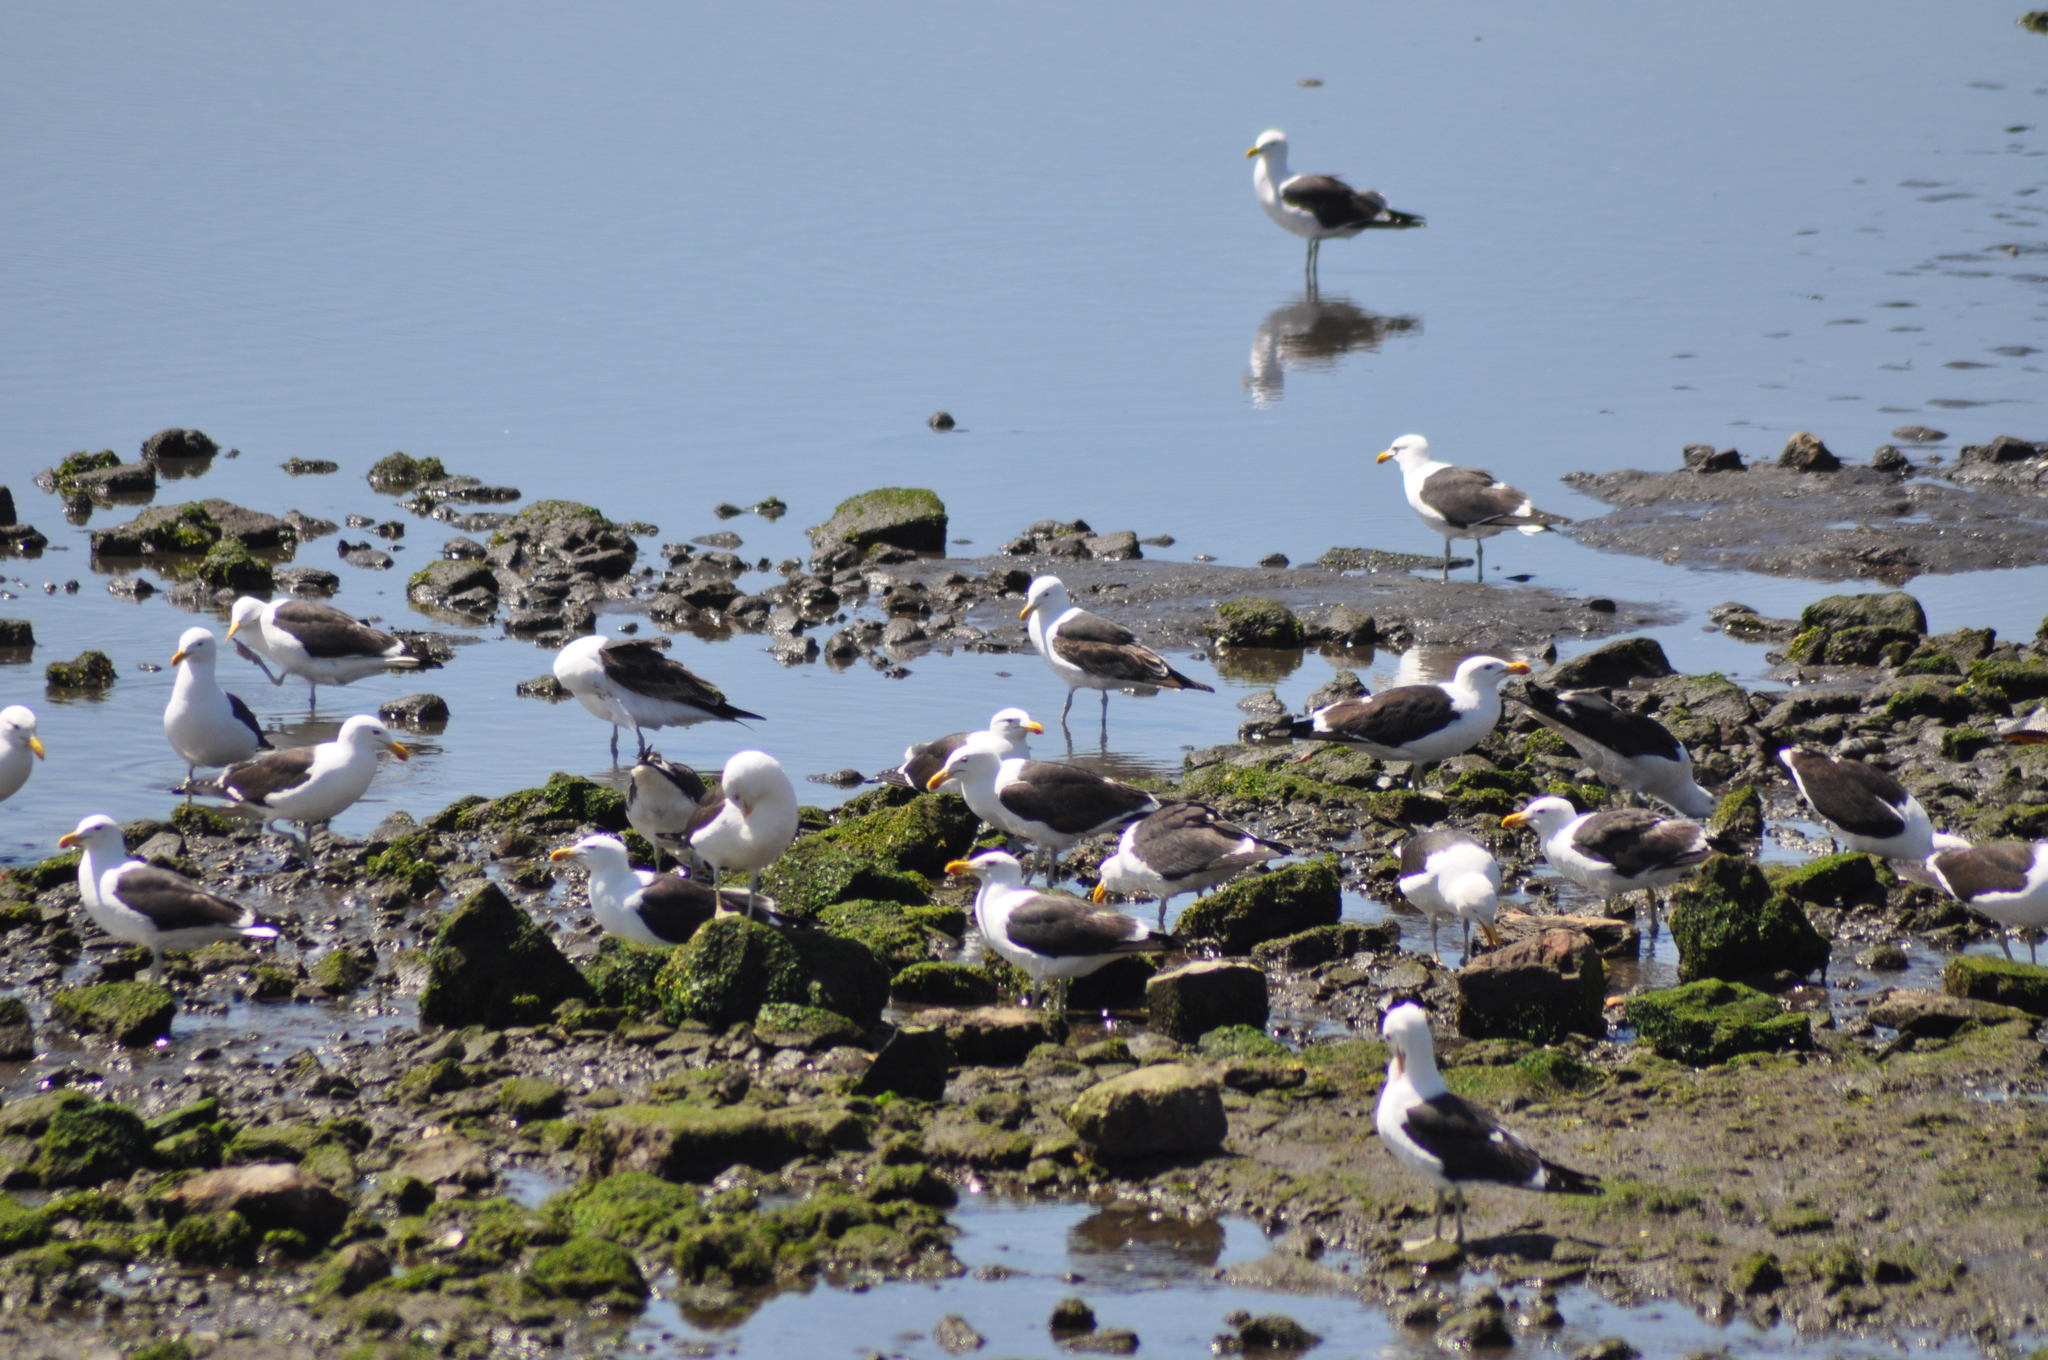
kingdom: Animalia
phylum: Chordata
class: Aves
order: Charadriiformes
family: Laridae
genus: Larus
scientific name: Larus dominicanus
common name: Kelp gull
